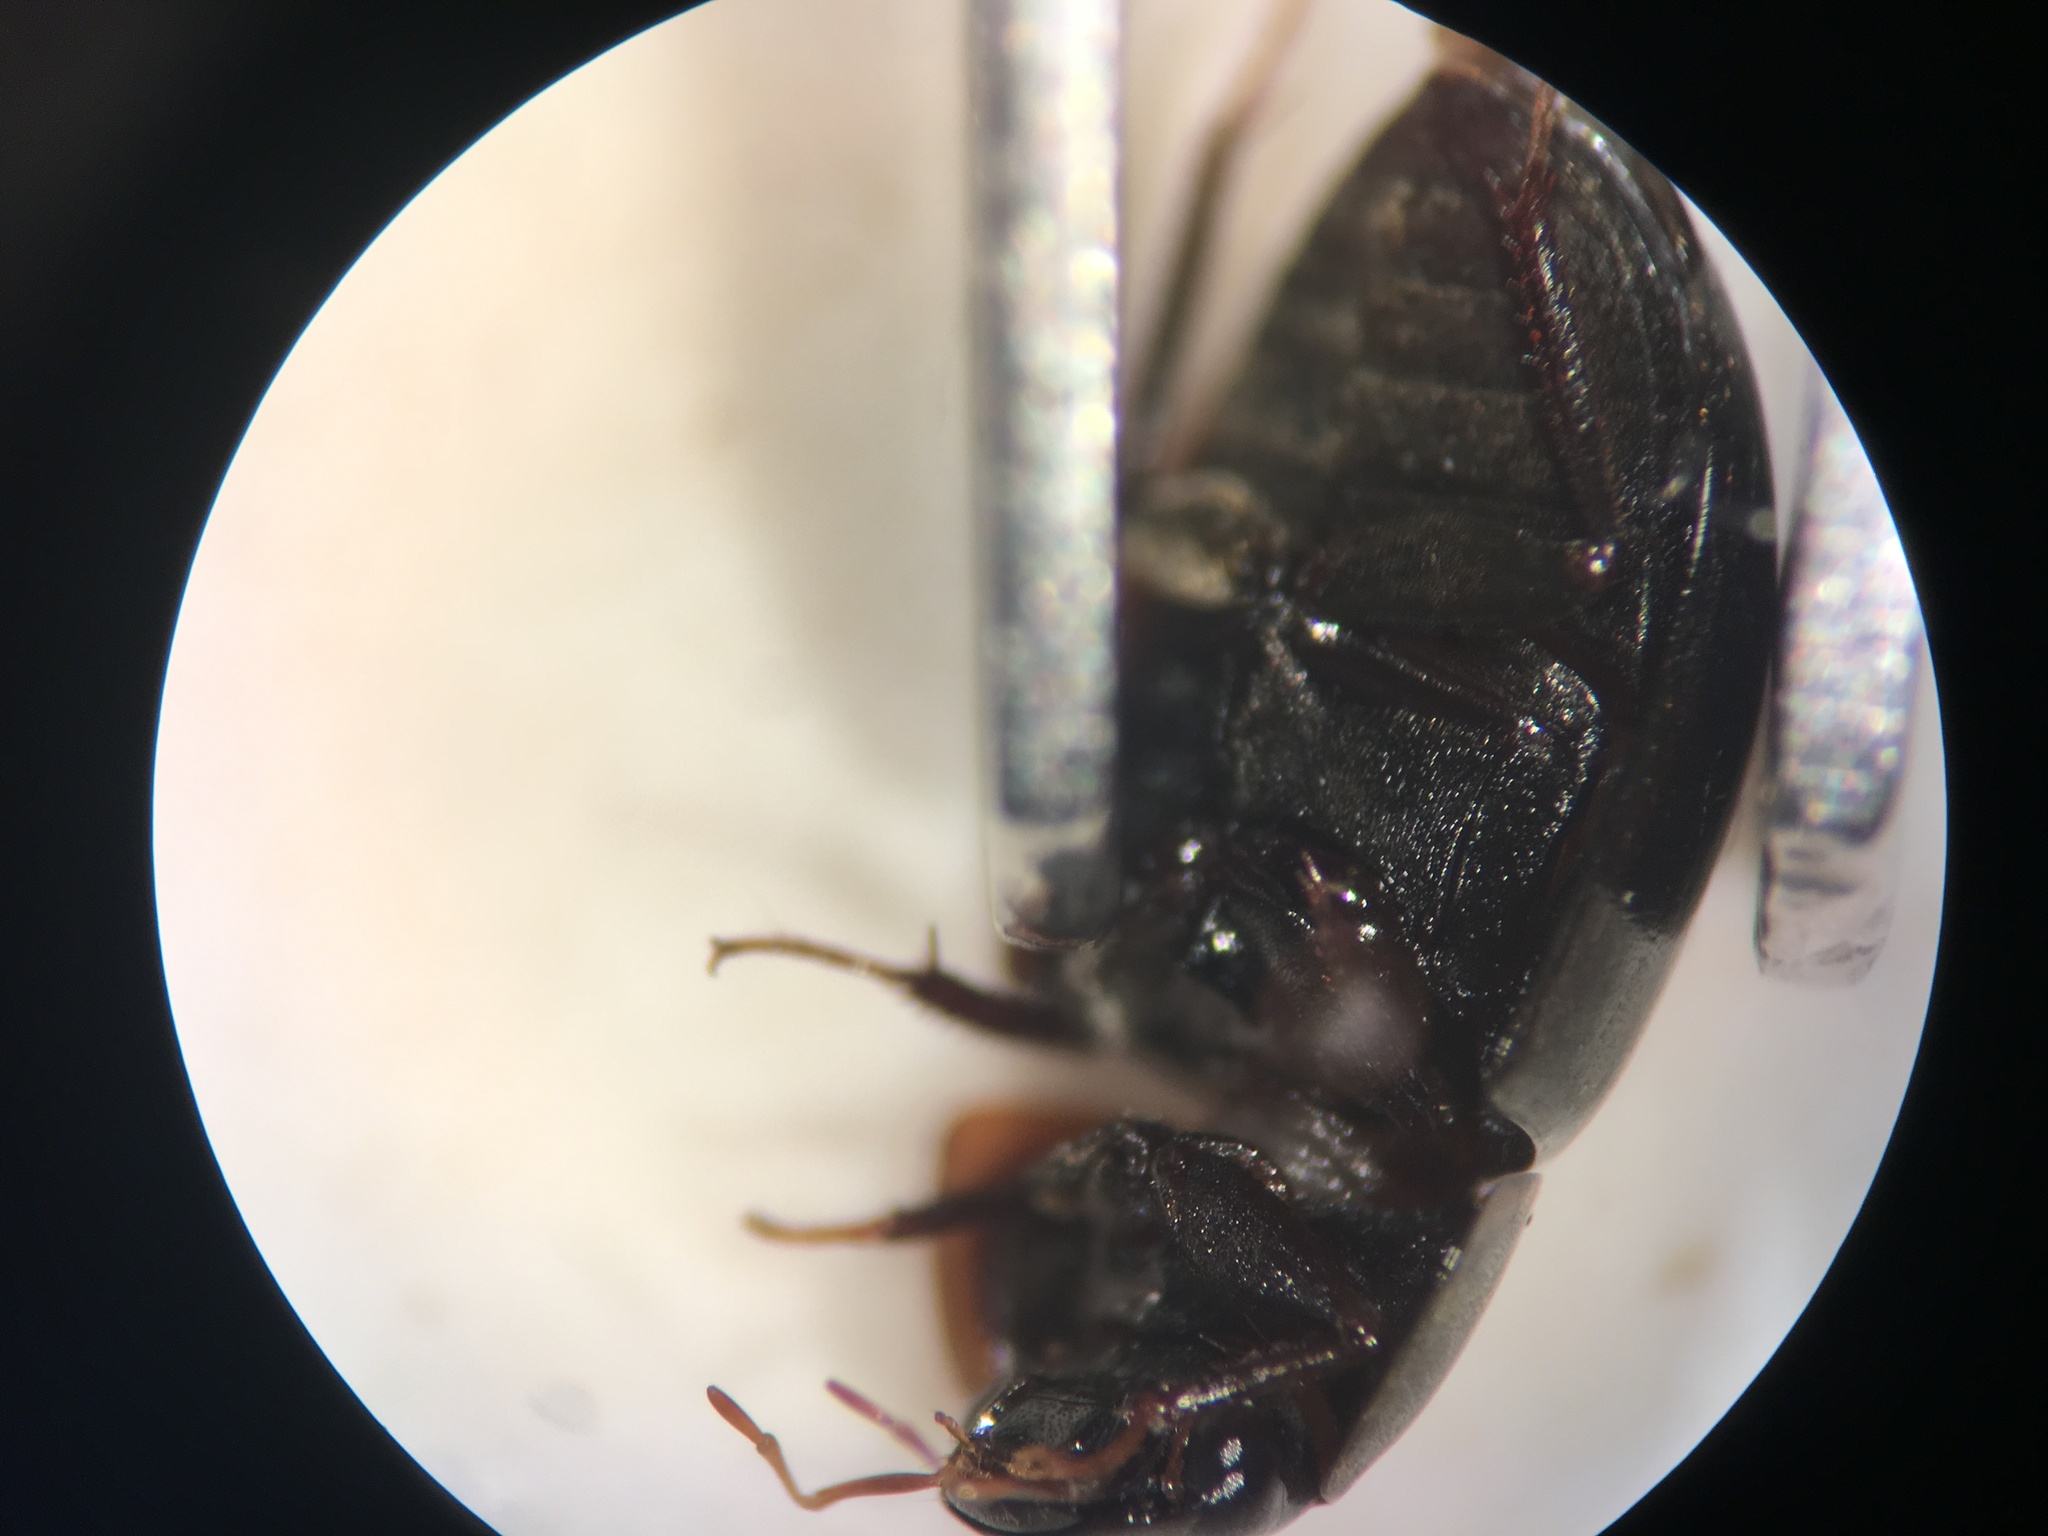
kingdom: Animalia
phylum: Arthropoda
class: Insecta
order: Coleoptera
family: Hydrophilidae
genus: Enochrus
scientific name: Enochrus consortus
